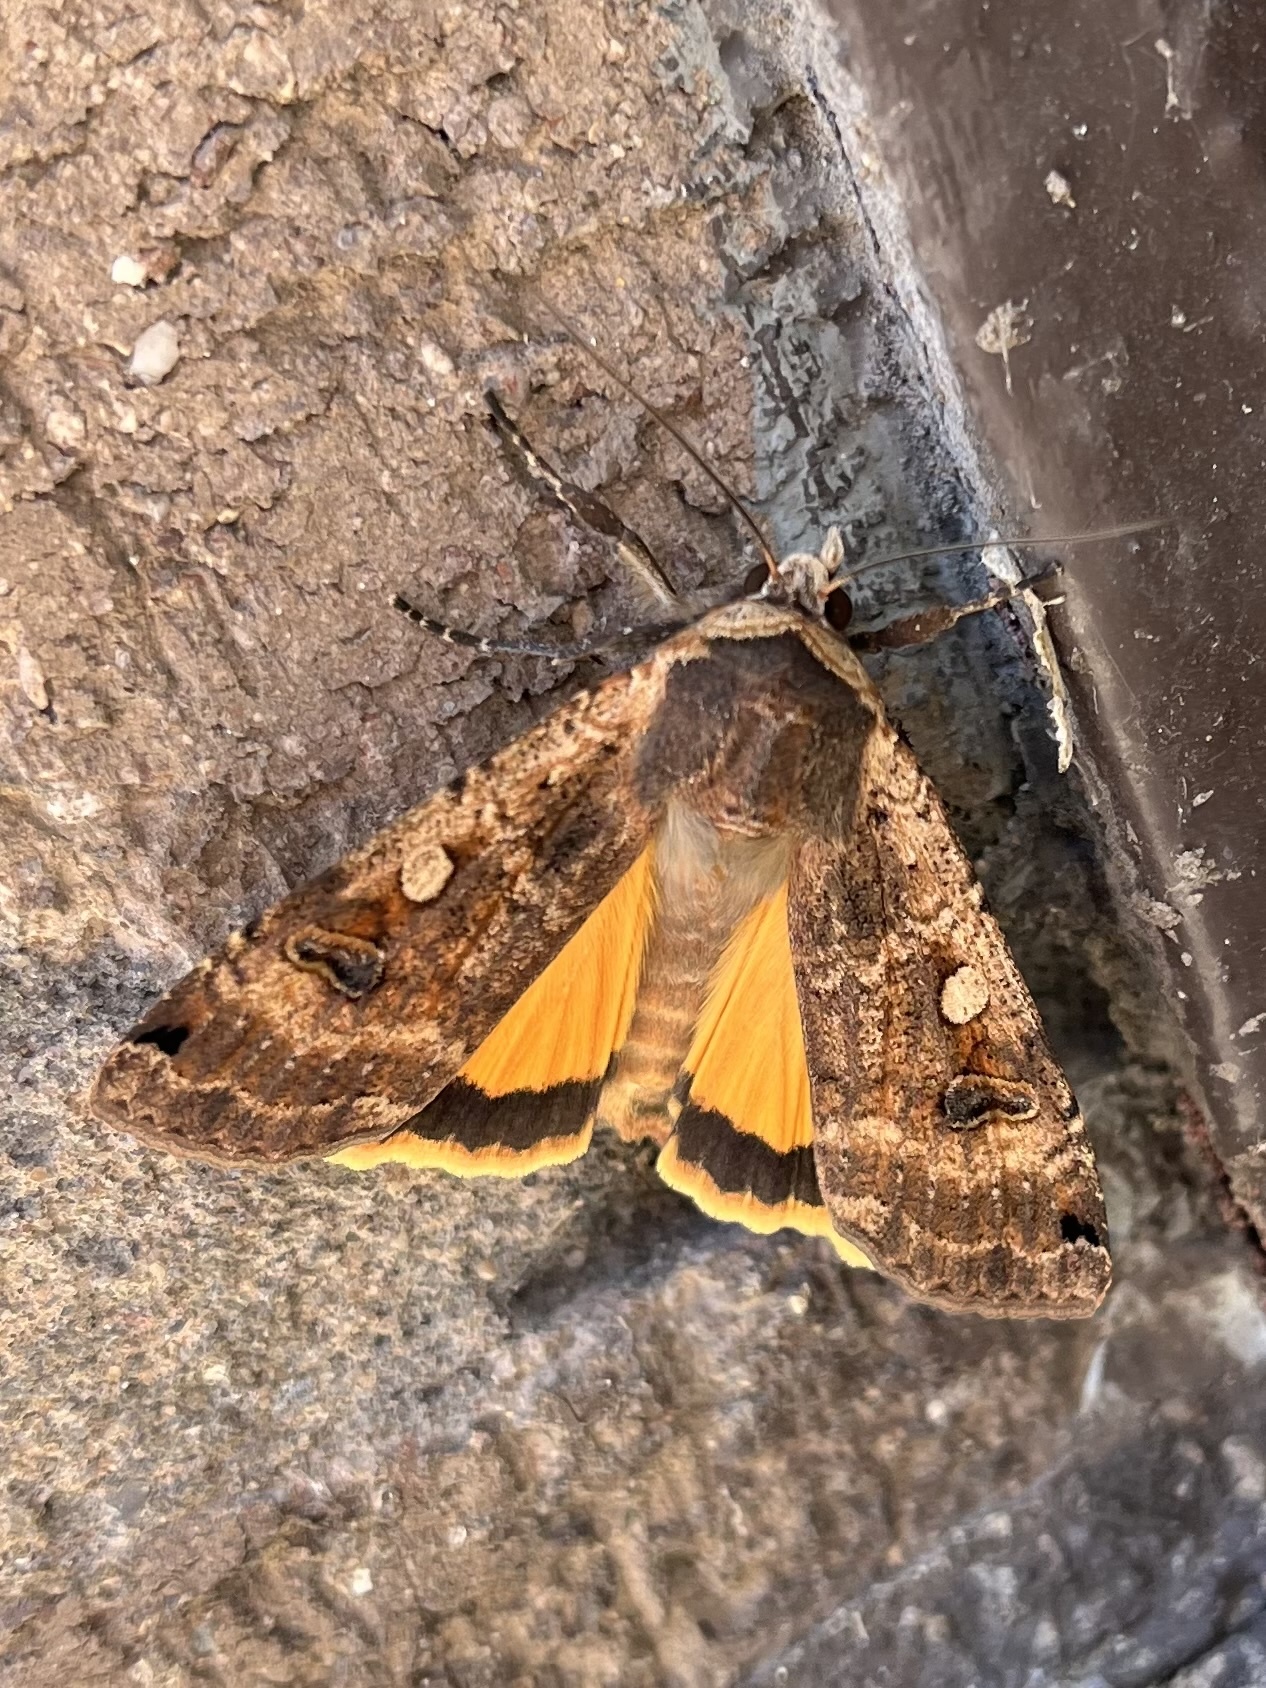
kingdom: Animalia
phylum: Arthropoda
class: Insecta
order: Lepidoptera
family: Noctuidae
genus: Noctua
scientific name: Noctua pronuba
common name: Large yellow underwing
